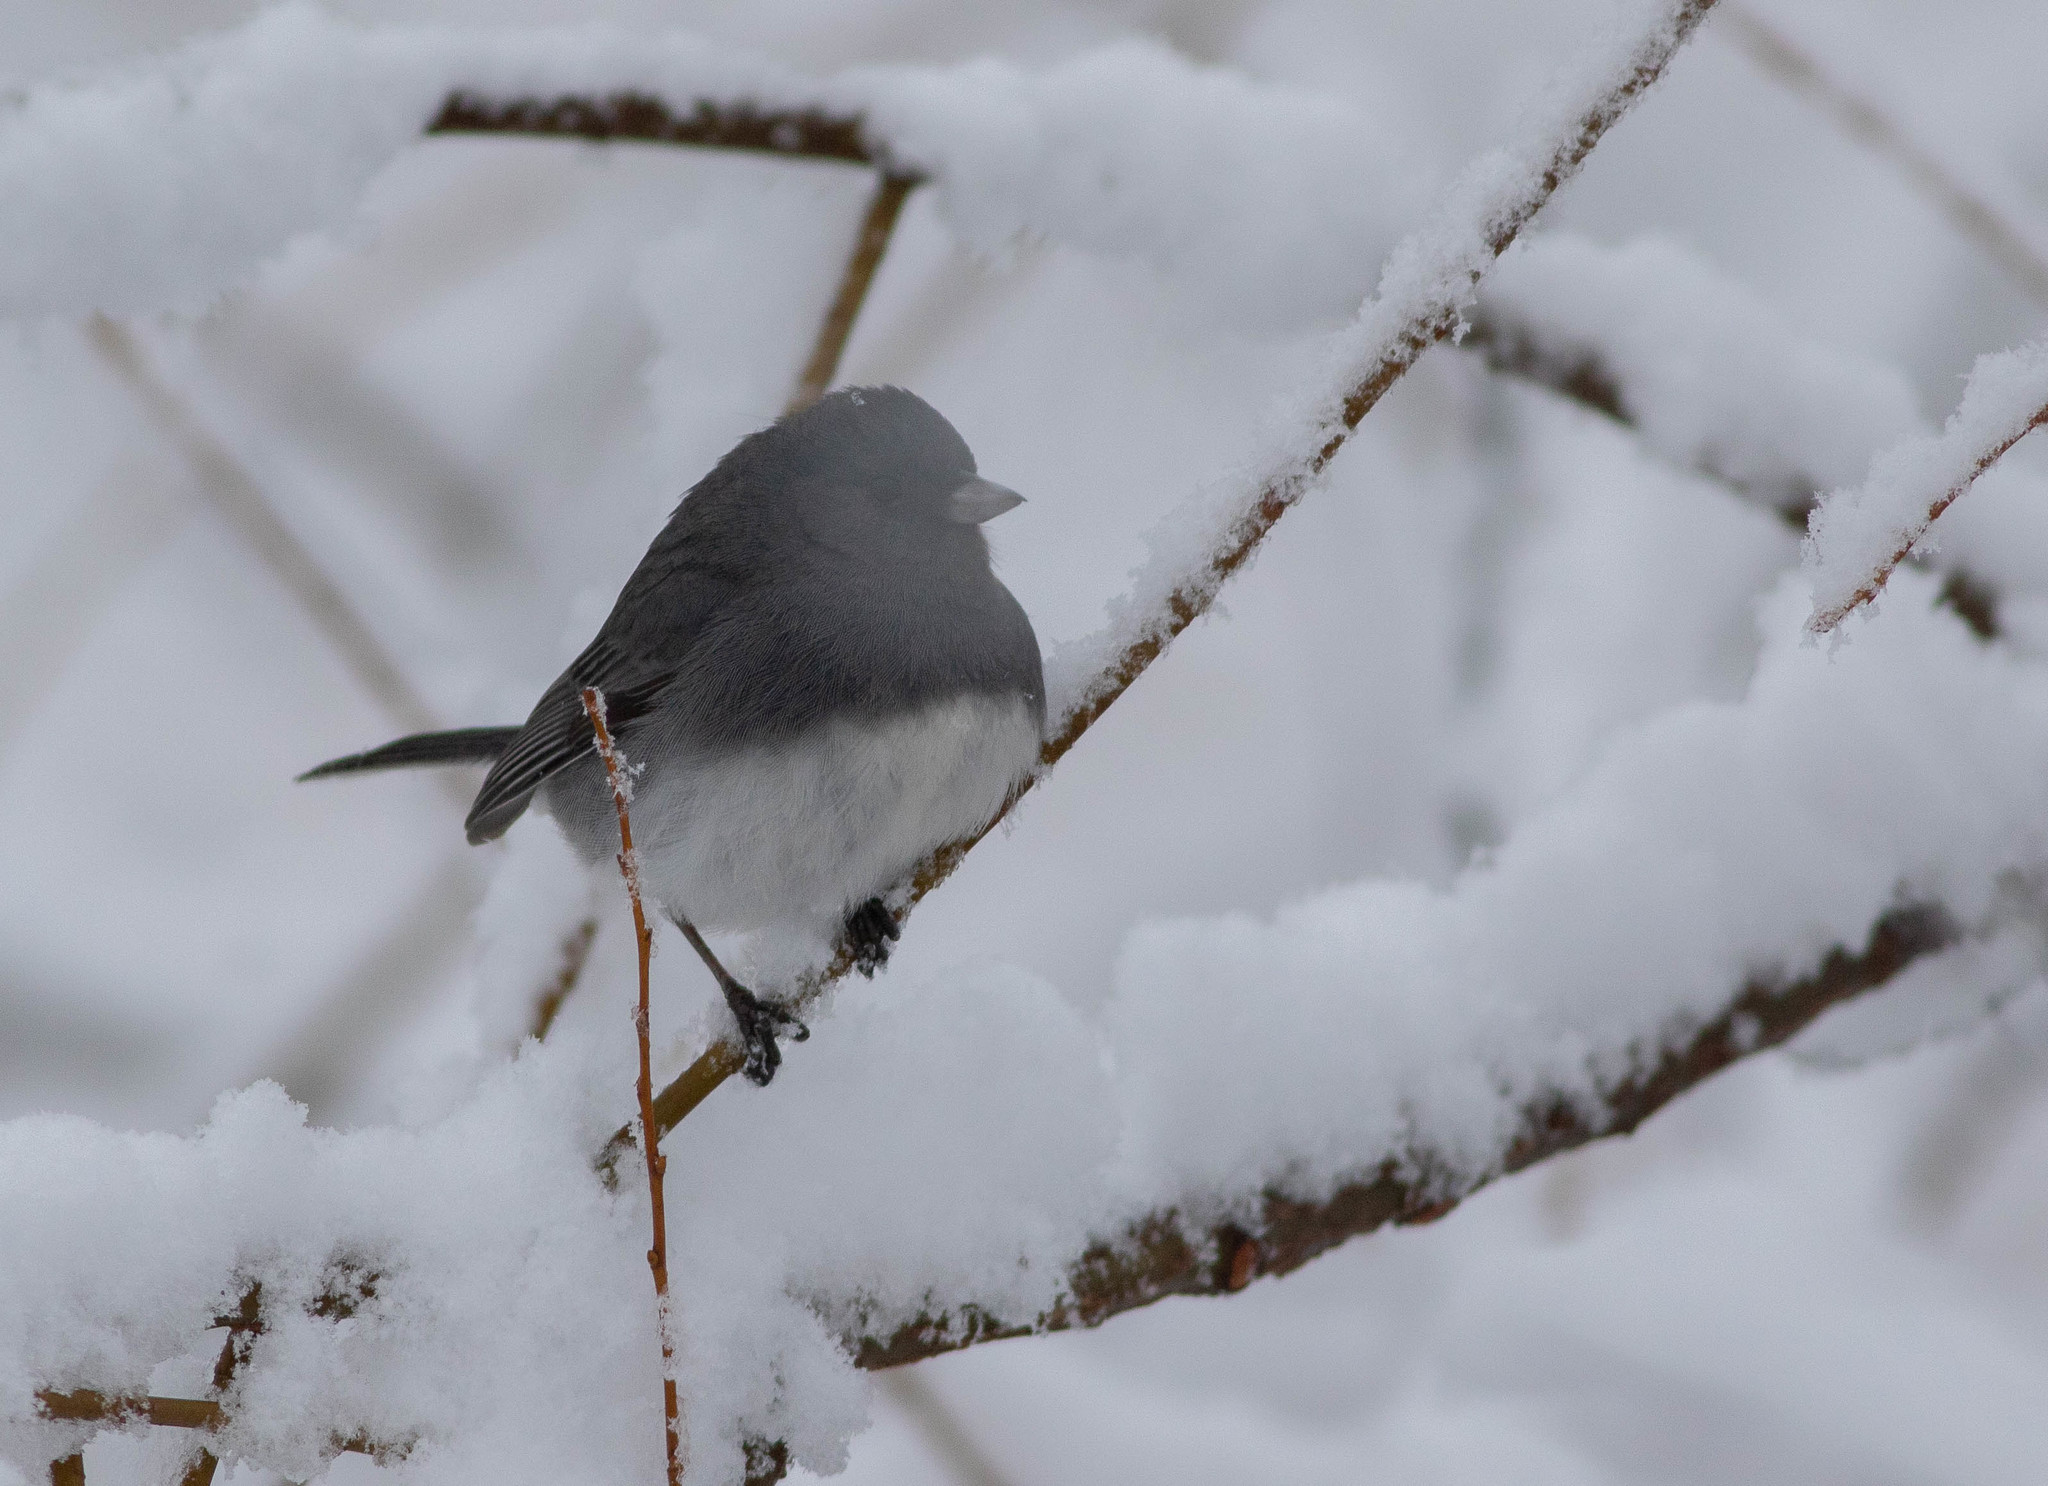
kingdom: Animalia
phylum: Chordata
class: Aves
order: Passeriformes
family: Passerellidae
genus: Junco
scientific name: Junco hyemalis
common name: Dark-eyed junco
